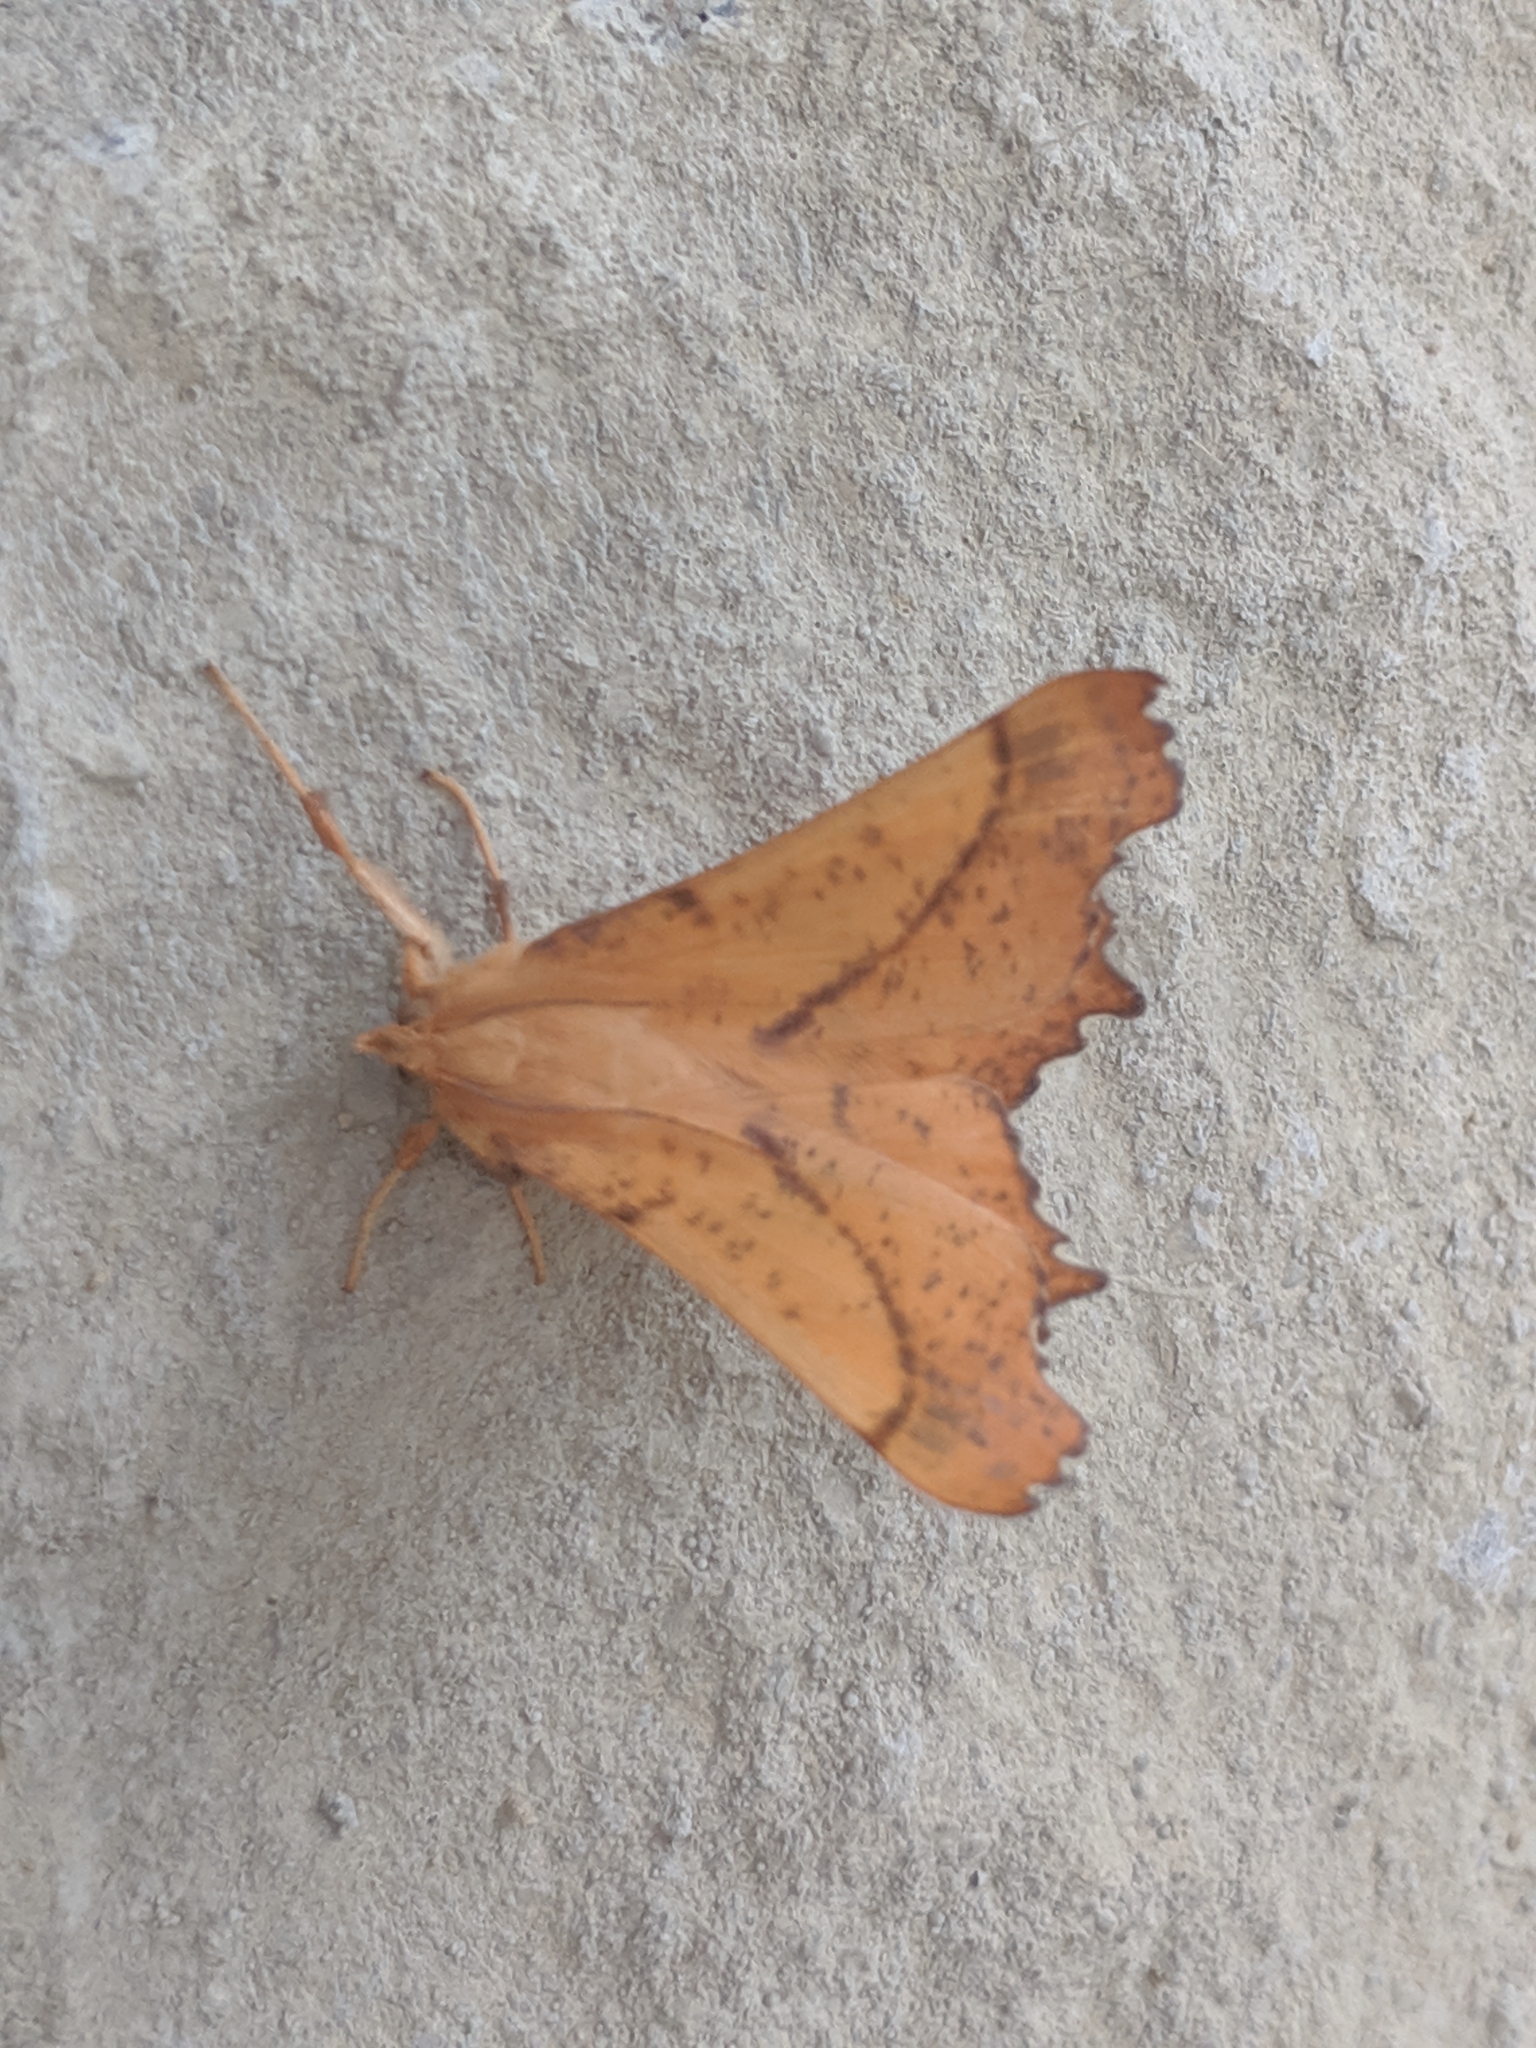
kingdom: Animalia
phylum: Arthropoda
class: Insecta
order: Lepidoptera
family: Geometridae
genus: Ennomos
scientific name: Ennomos magnaria
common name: Maple spanworm
